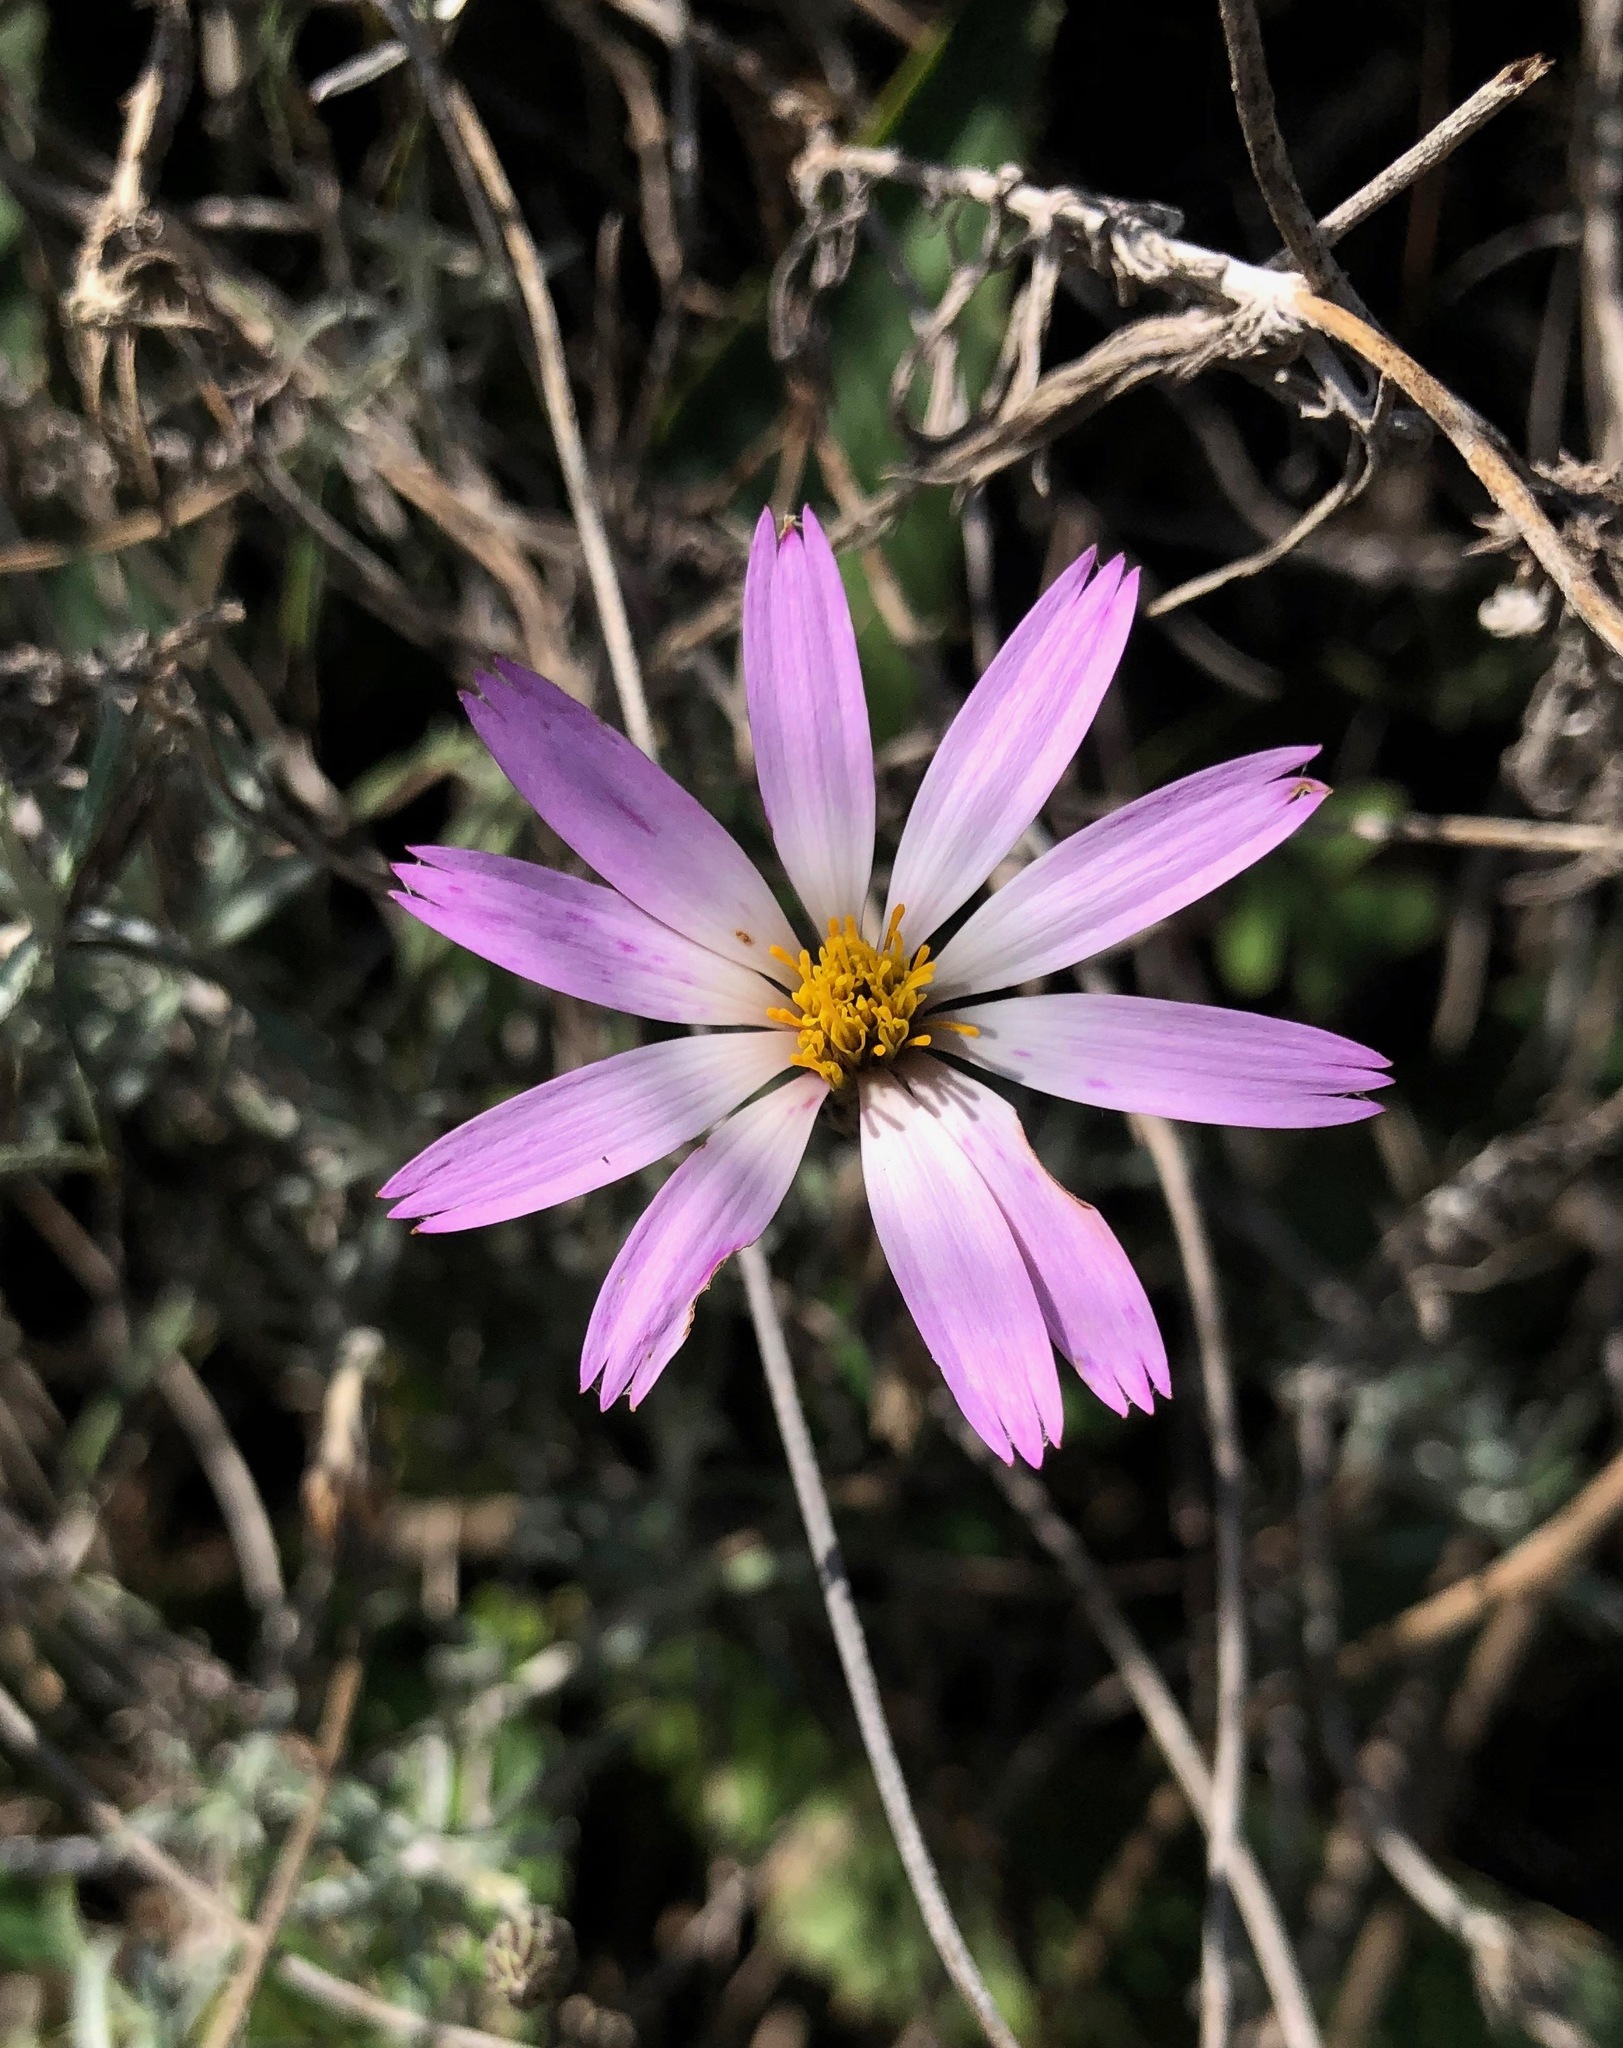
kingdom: Plantae
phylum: Tracheophyta
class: Magnoliopsida
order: Asterales
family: Asteraceae
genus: Onoseris
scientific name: Onoseris hyssopifolia
